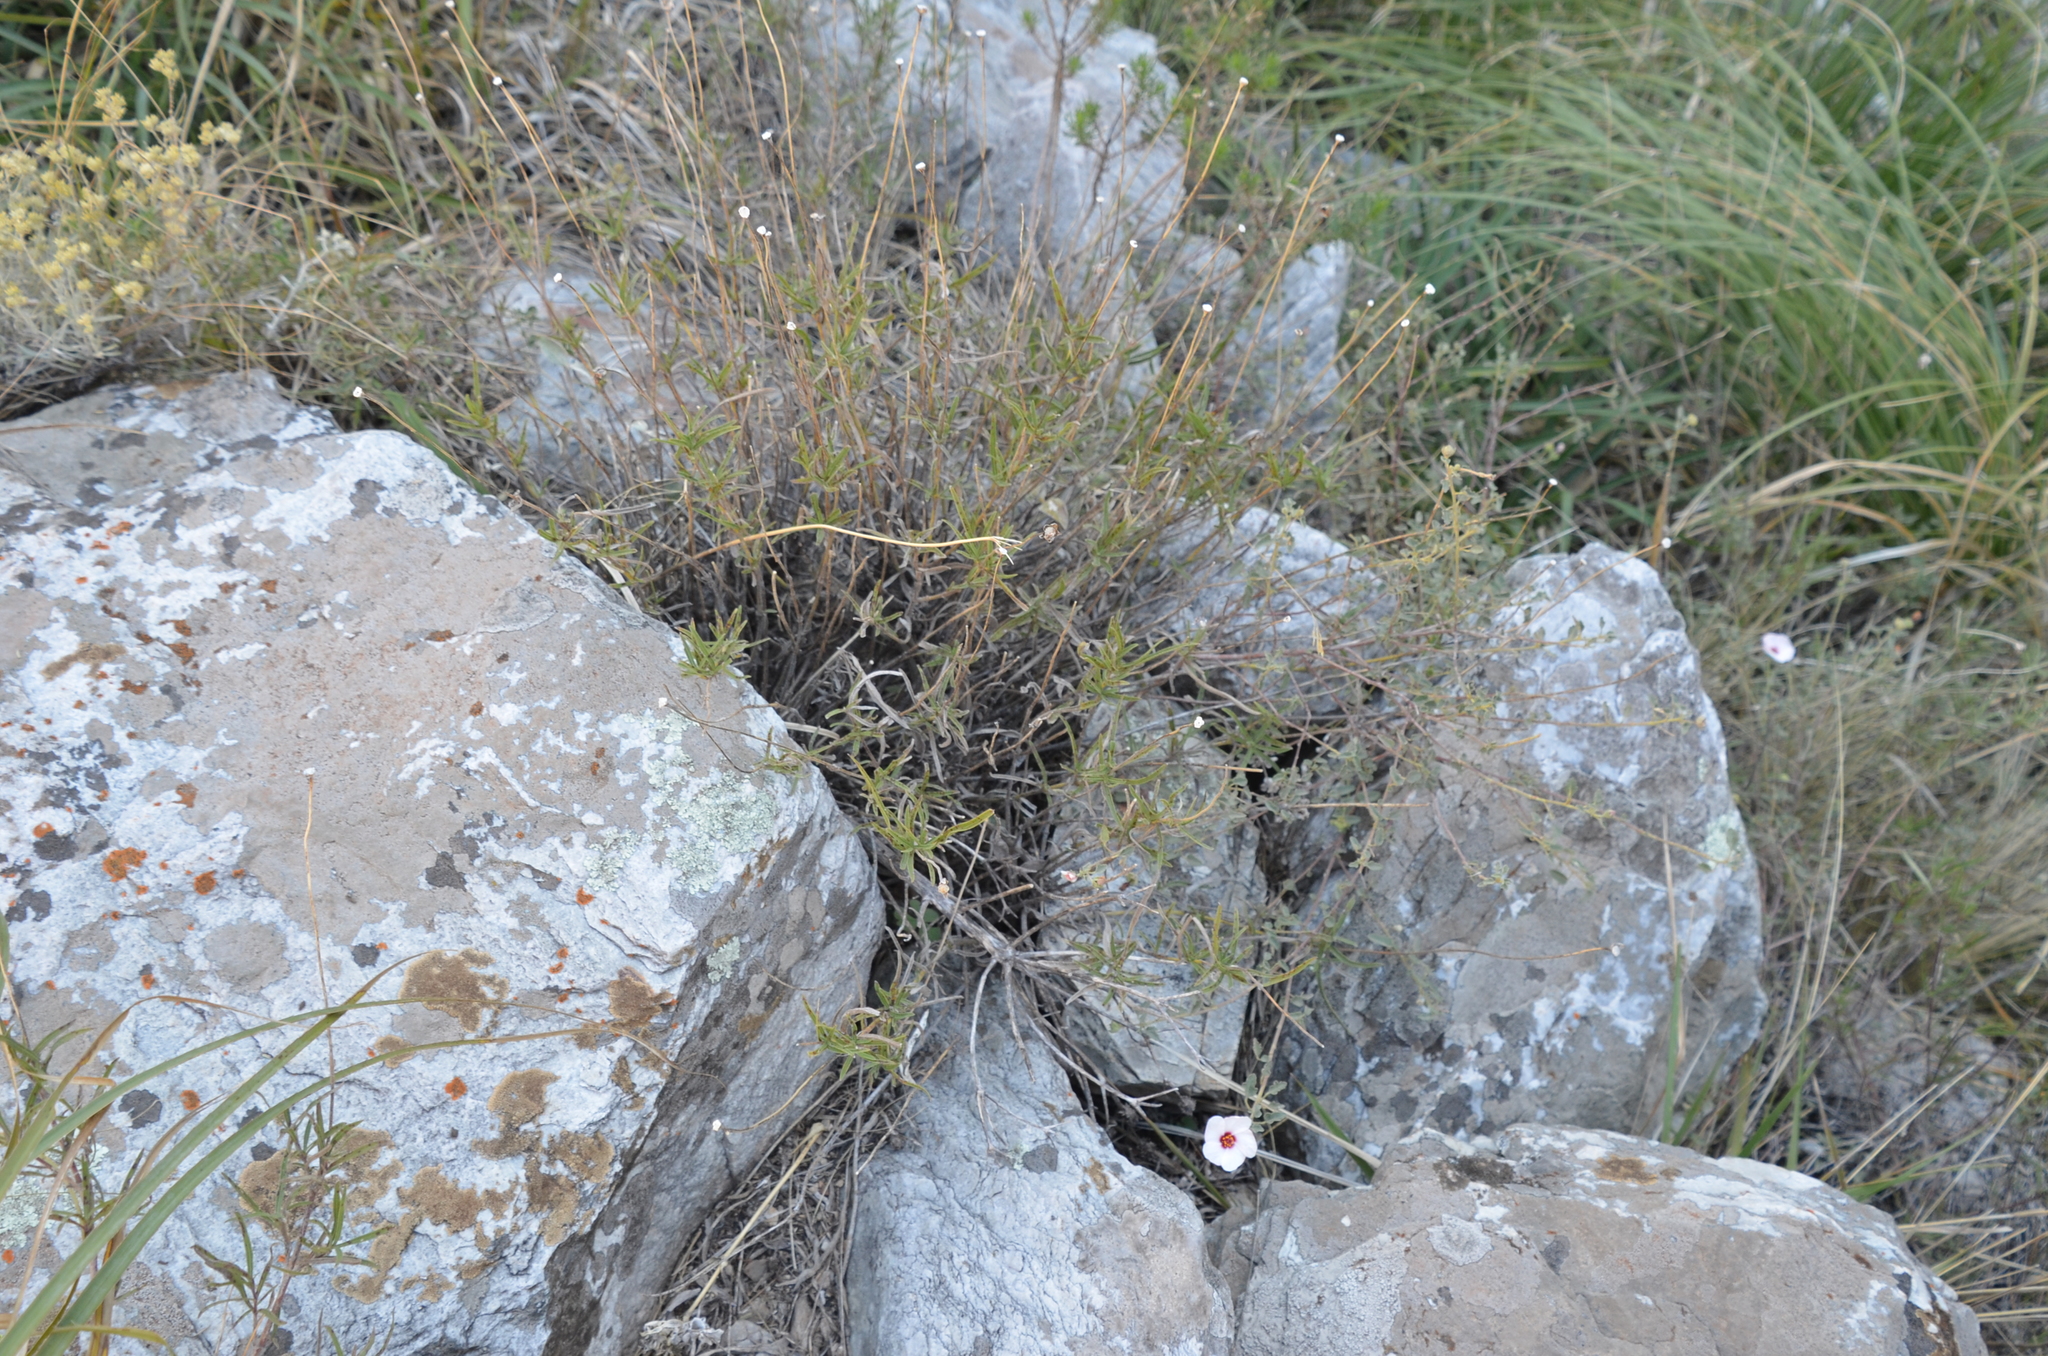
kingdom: Plantae
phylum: Tracheophyta
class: Magnoliopsida
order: Malvales
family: Malvaceae
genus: Pavonia
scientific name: Pavonia cymbalaria
